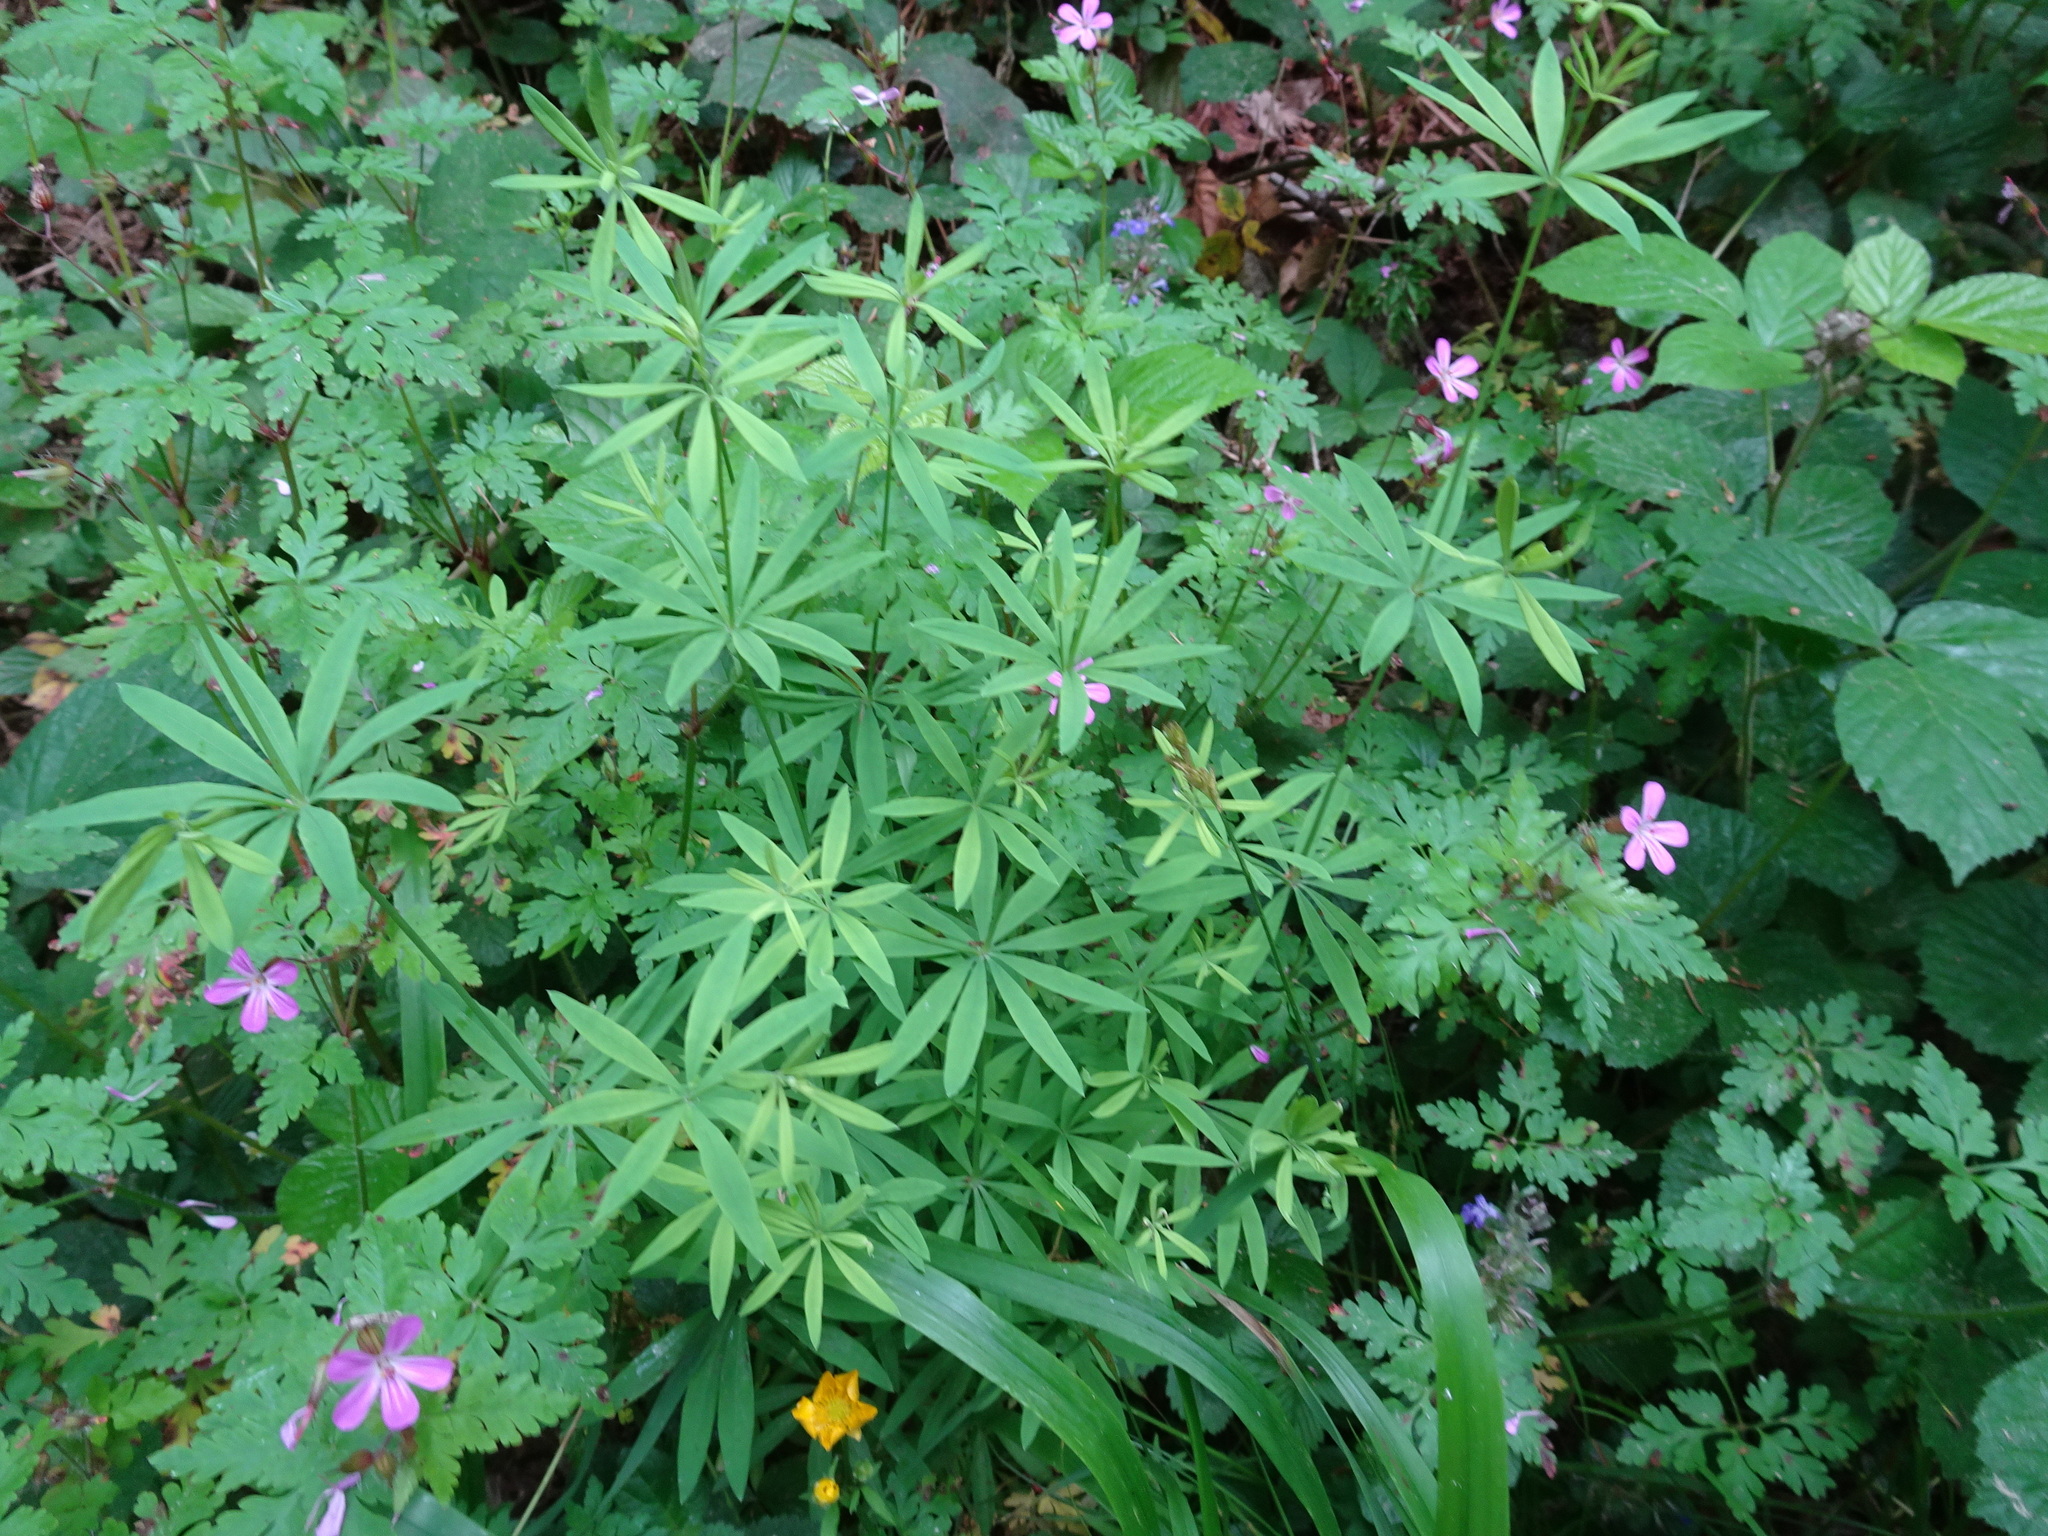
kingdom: Plantae
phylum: Tracheophyta
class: Magnoliopsida
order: Gentianales
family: Rubiaceae
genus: Galium
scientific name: Galium sylvaticum
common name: Wood bedstraw
